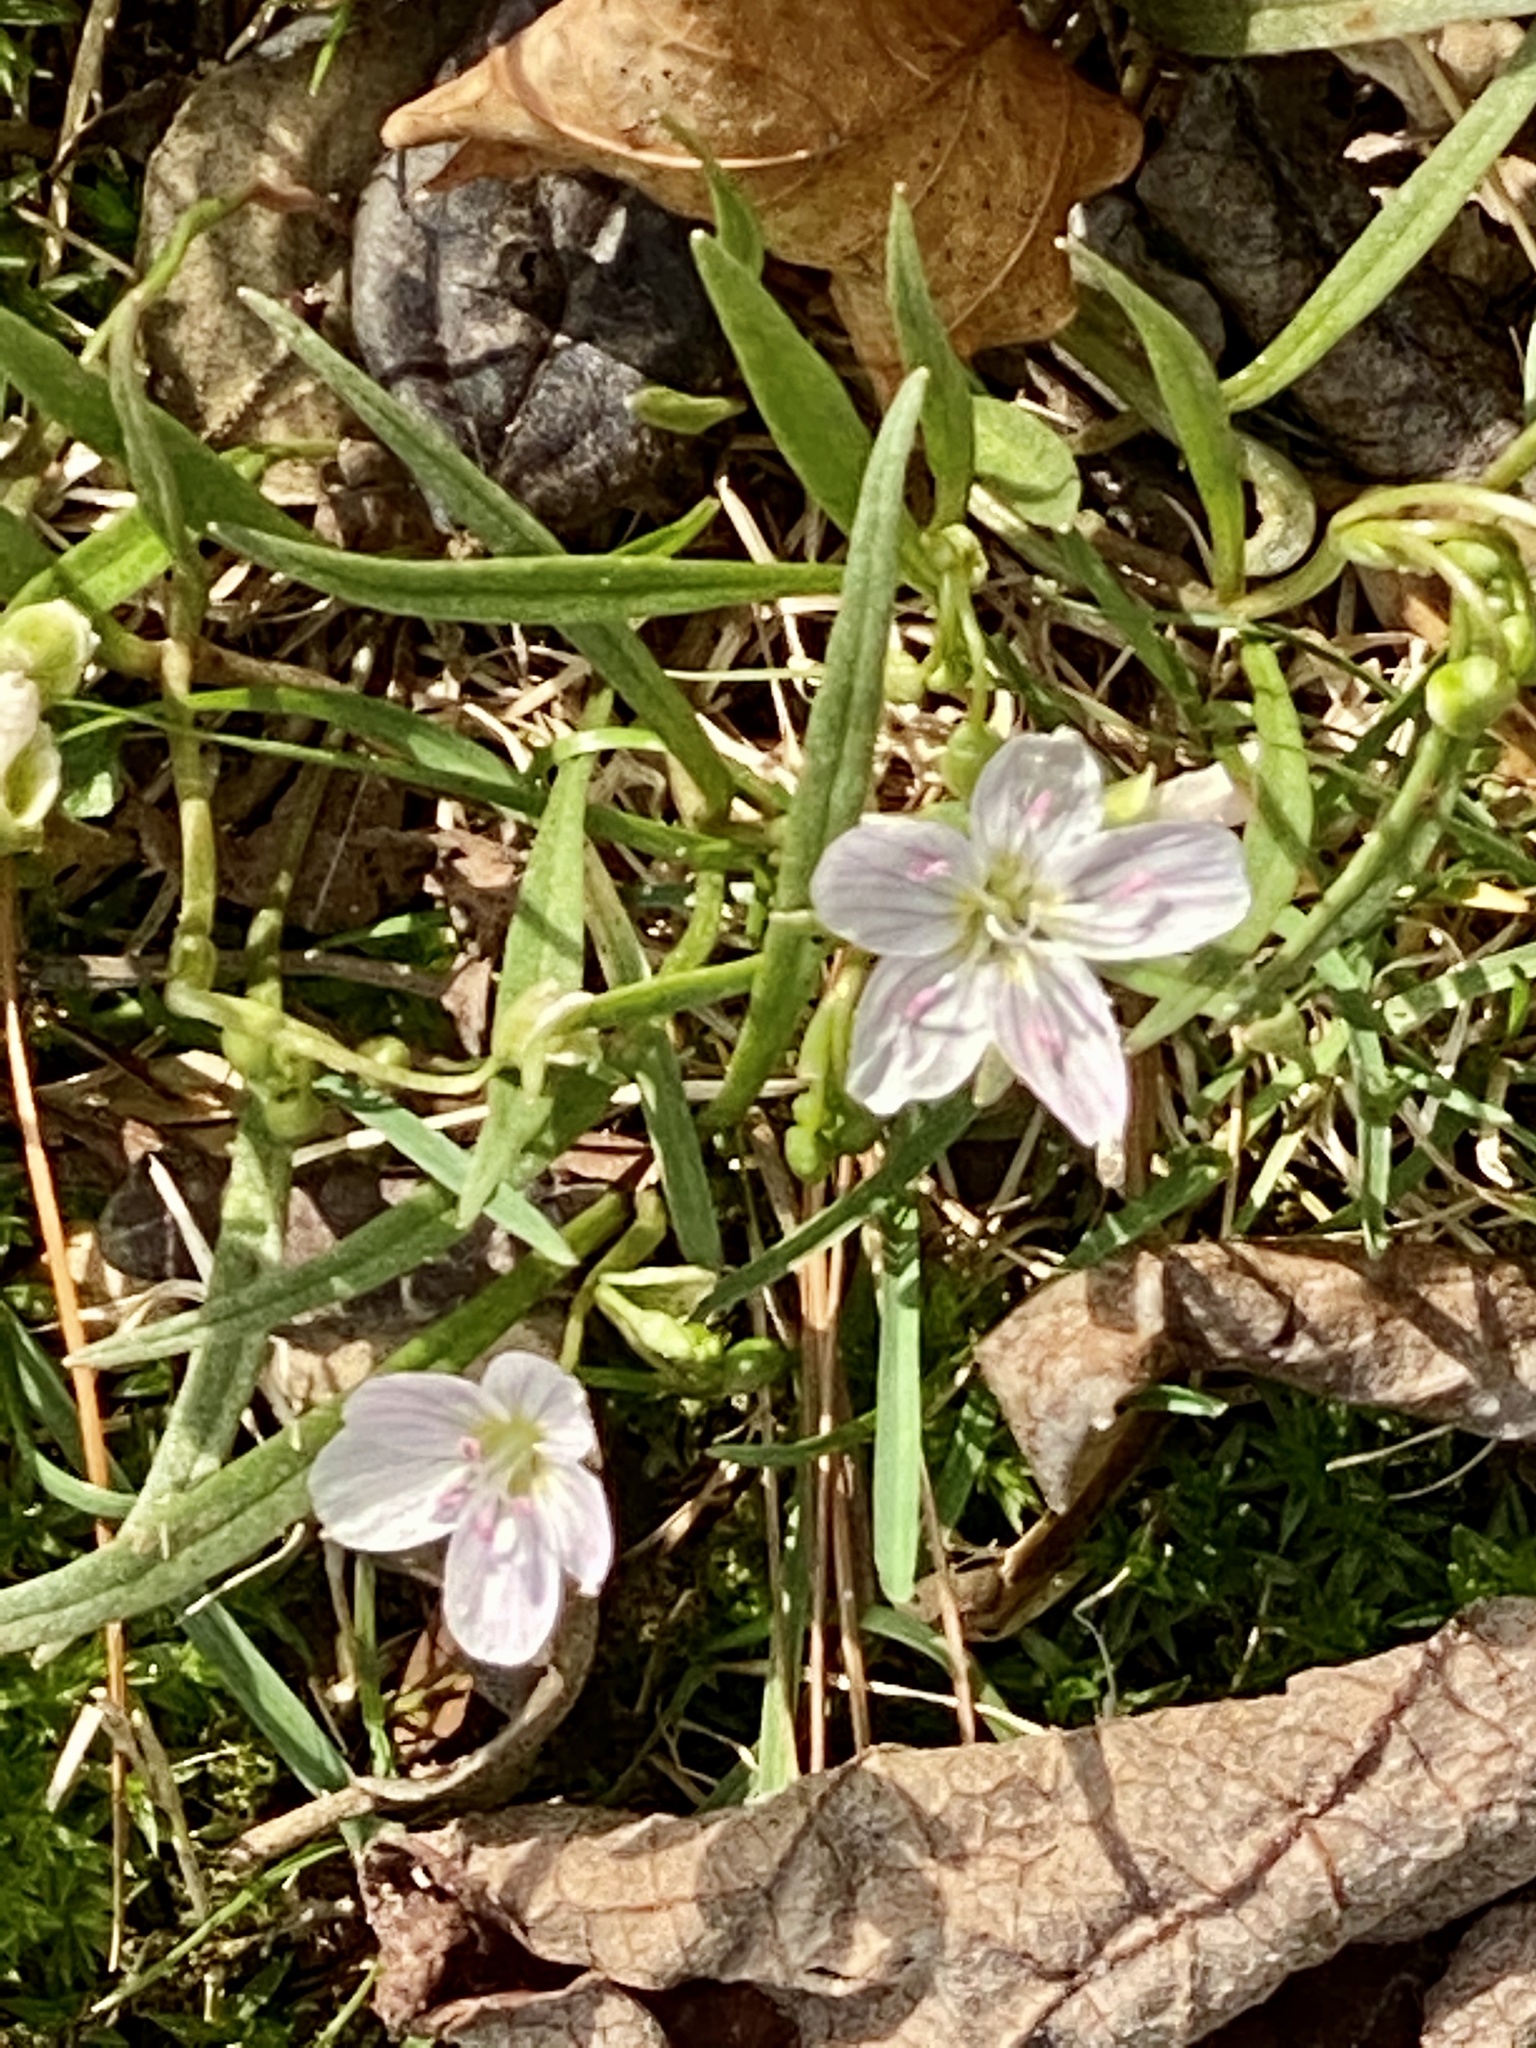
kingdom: Plantae
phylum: Tracheophyta
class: Magnoliopsida
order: Caryophyllales
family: Montiaceae
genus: Claytonia
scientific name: Claytonia virginica
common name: Virginia springbeauty
